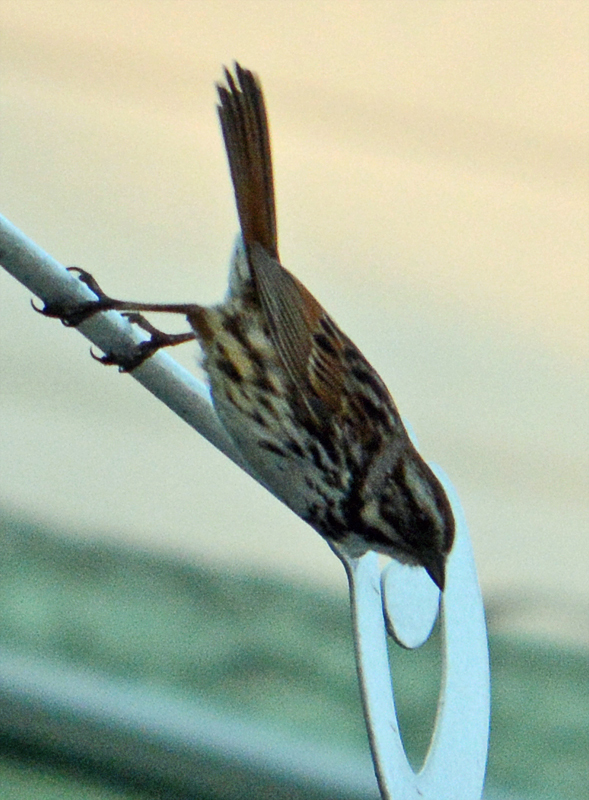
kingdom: Animalia
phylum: Chordata
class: Aves
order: Passeriformes
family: Passerellidae
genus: Melospiza
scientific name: Melospiza melodia
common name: Song sparrow
